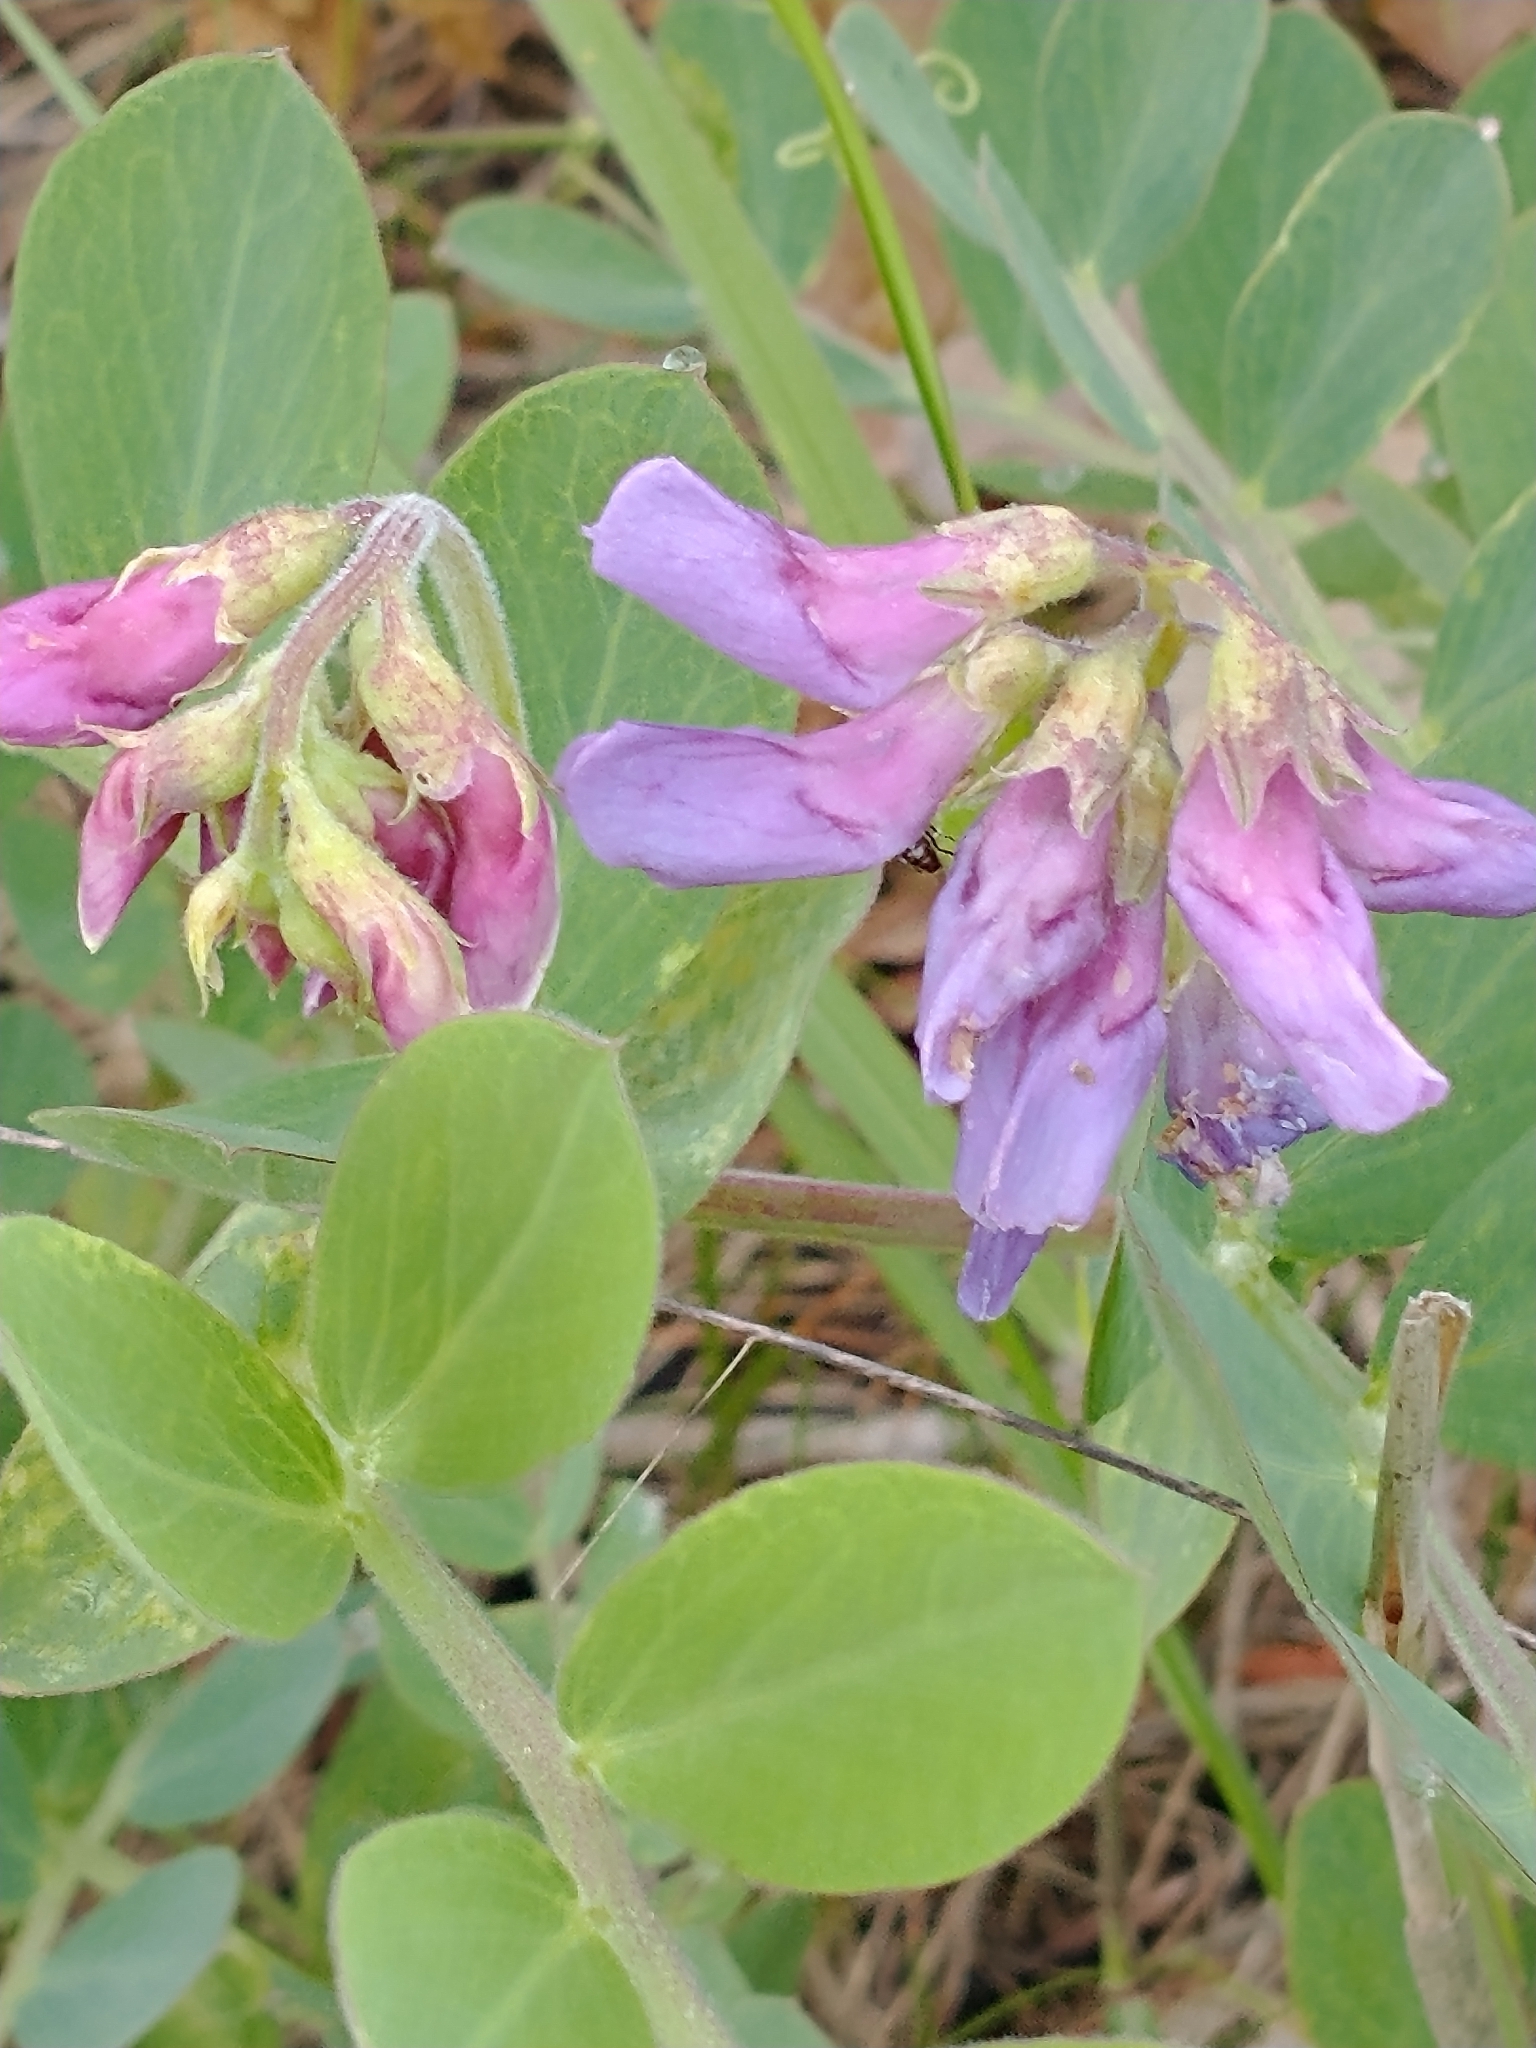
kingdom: Plantae
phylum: Tracheophyta
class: Magnoliopsida
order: Fabales
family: Fabaceae
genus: Lathyrus
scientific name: Lathyrus japonicus
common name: Sea pea
